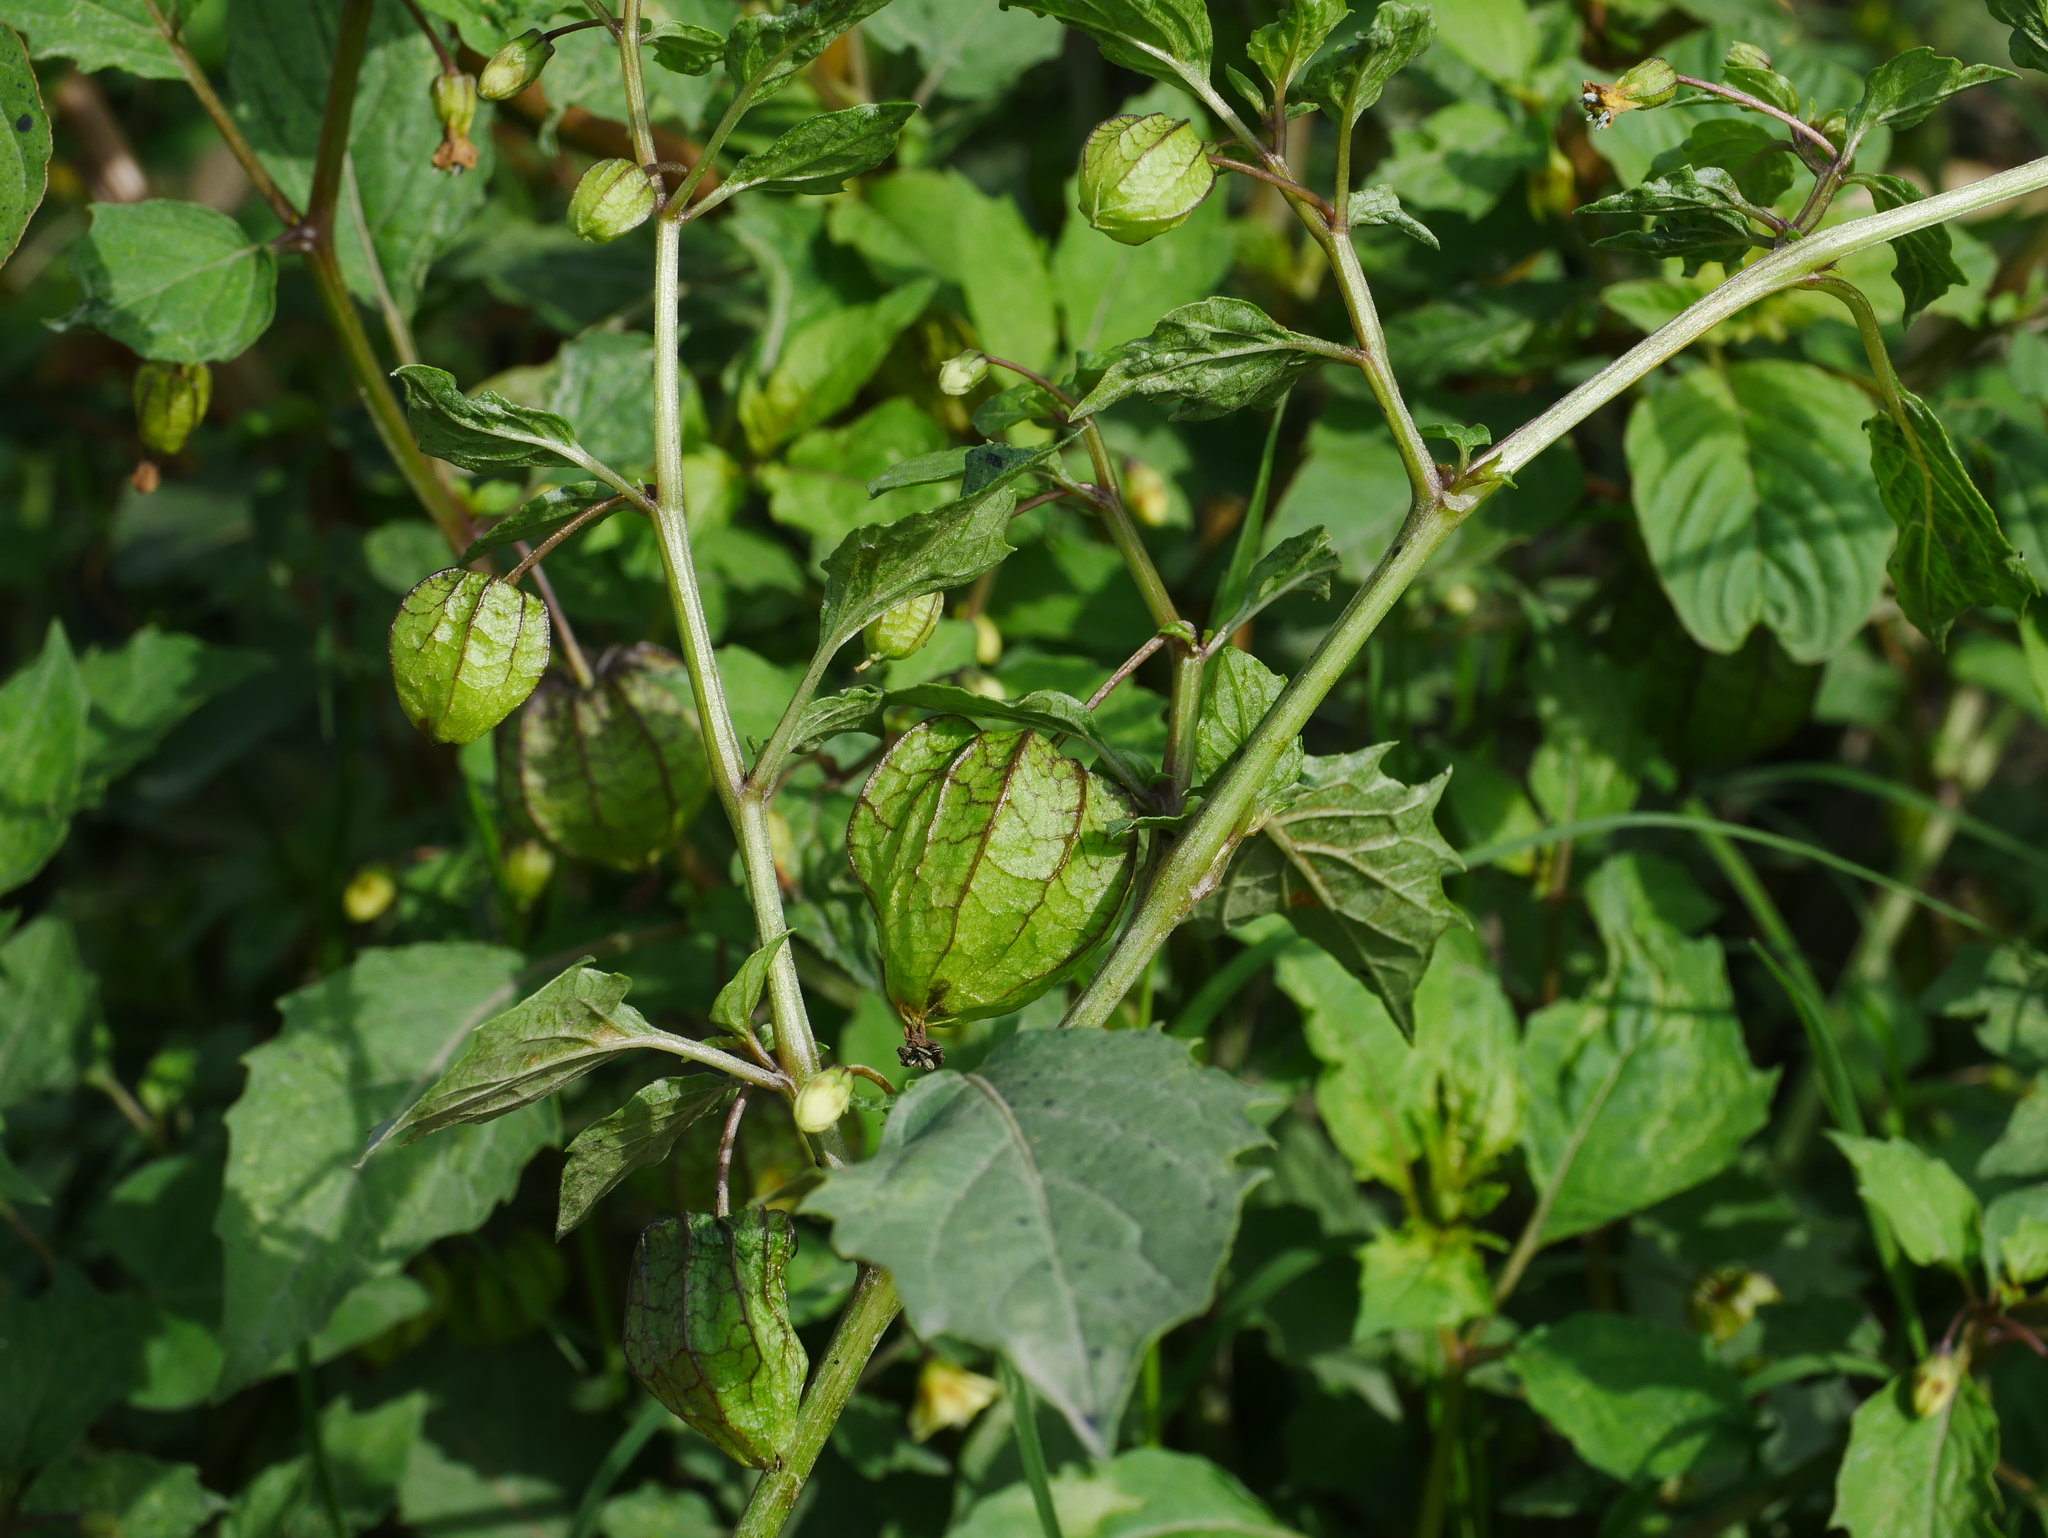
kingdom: Plantae
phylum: Tracheophyta
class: Magnoliopsida
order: Solanales
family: Solanaceae
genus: Physalis
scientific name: Physalis angulata
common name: Angular winter-cherry
